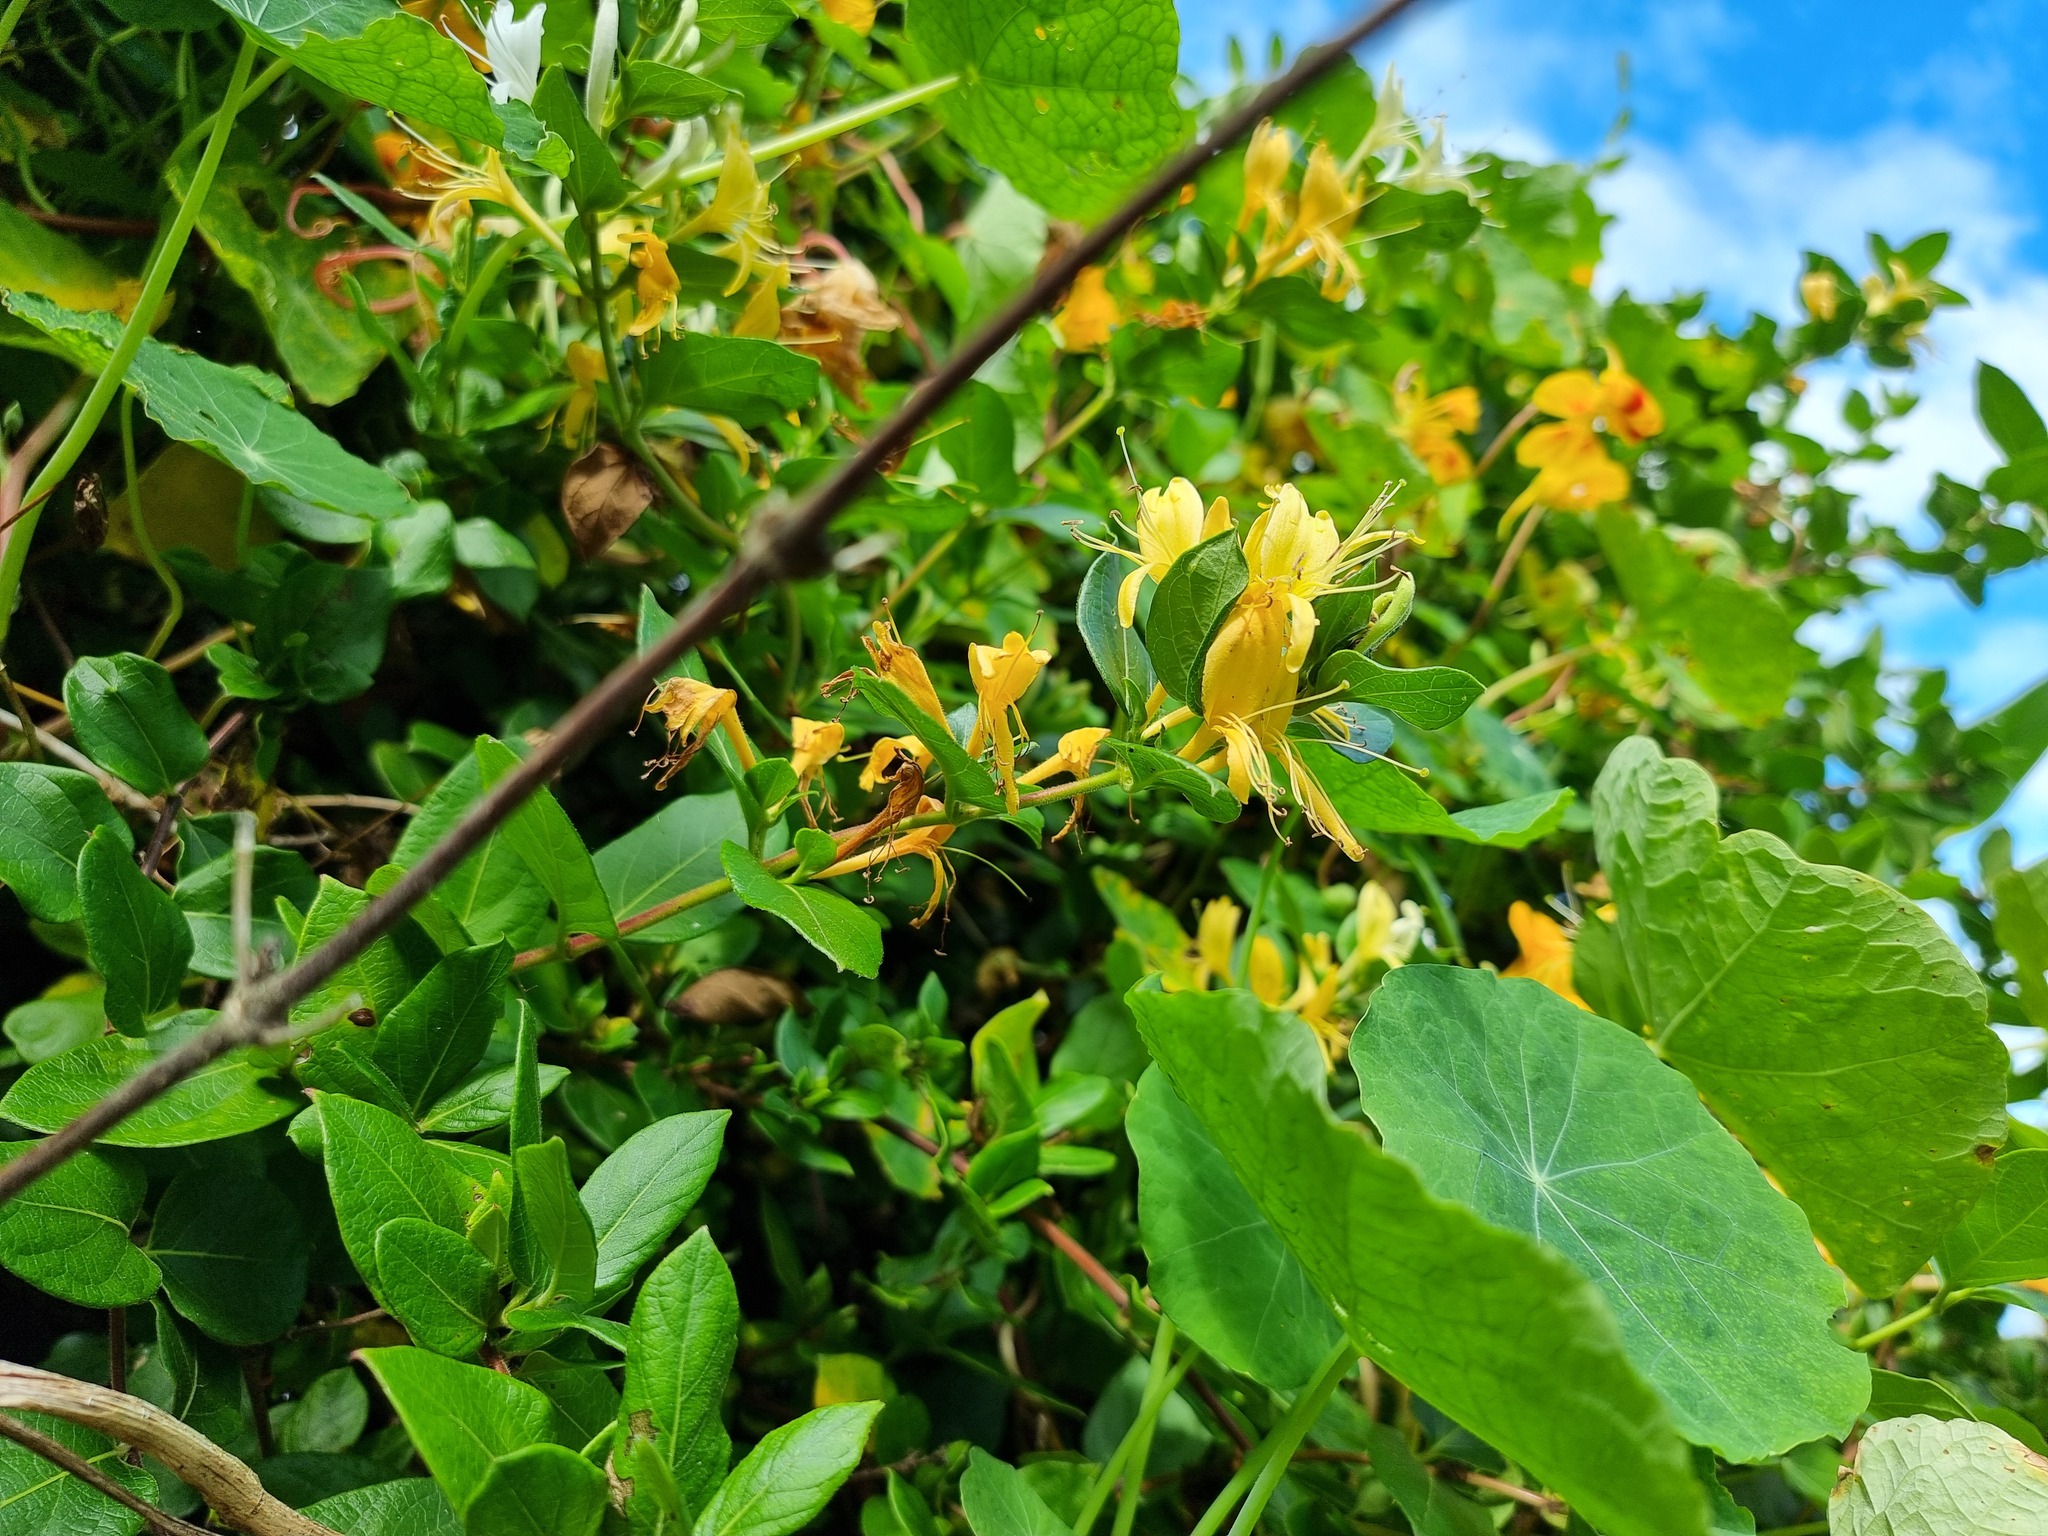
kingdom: Plantae
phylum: Tracheophyta
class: Magnoliopsida
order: Dipsacales
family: Caprifoliaceae
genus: Lonicera
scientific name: Lonicera japonica
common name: Japanese honeysuckle
